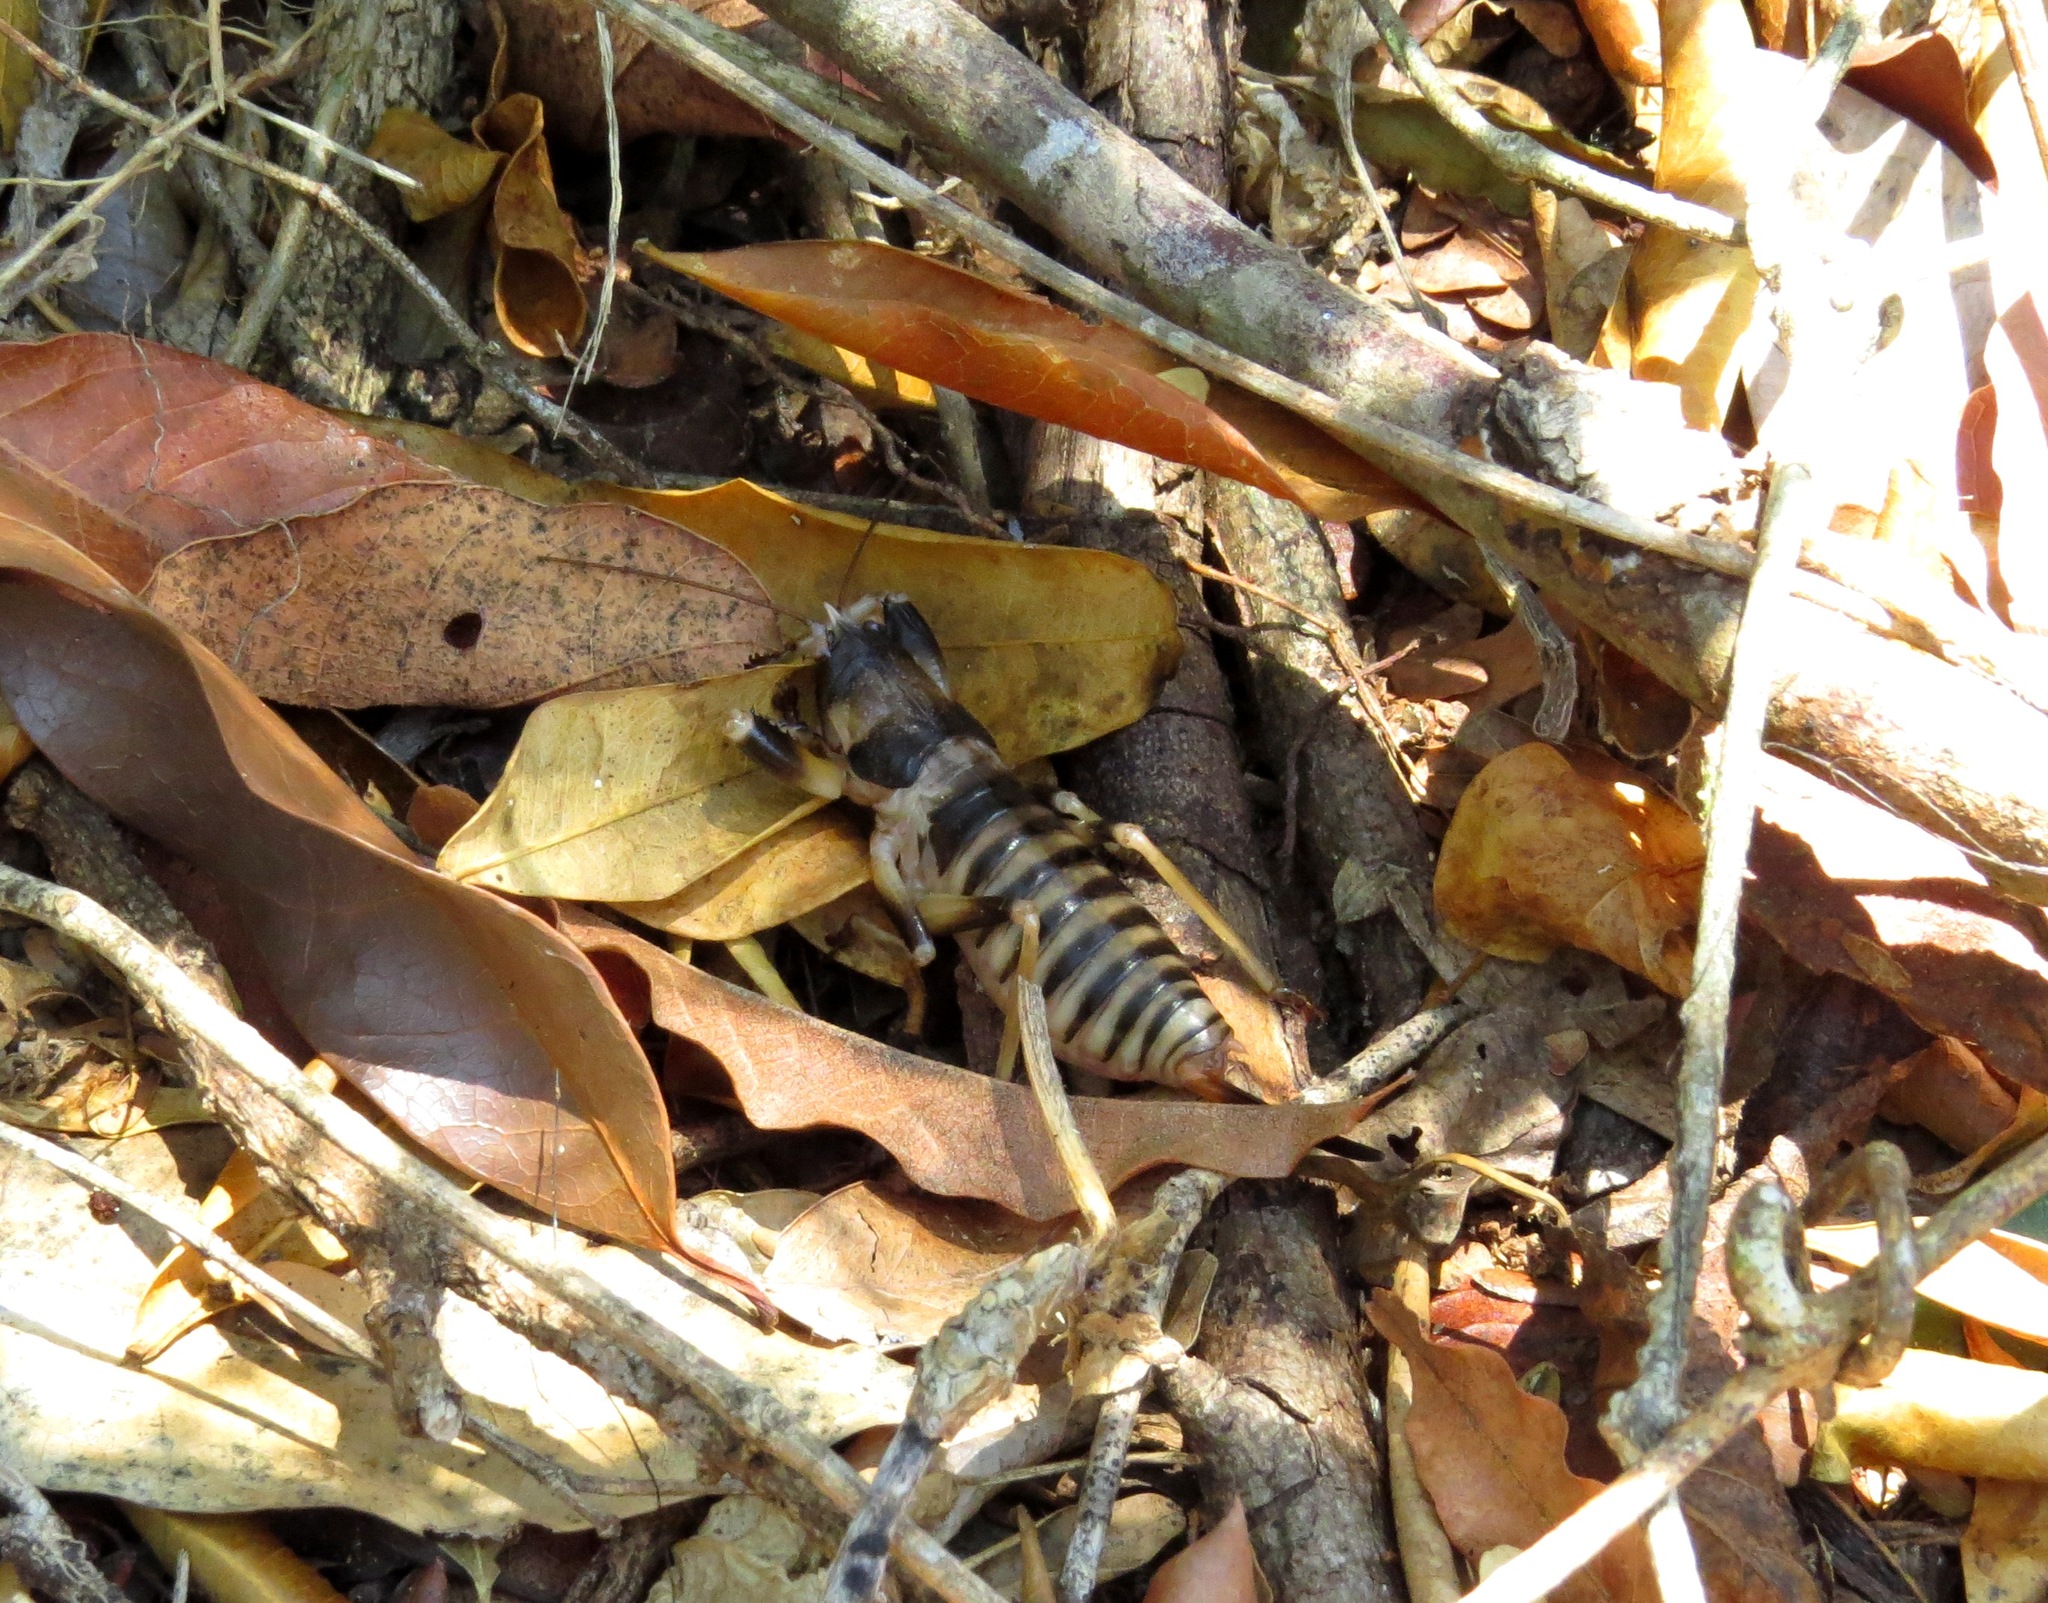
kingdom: Animalia
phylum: Arthropoda
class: Insecta
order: Orthoptera
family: Tettigoniidae
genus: Oncodopus
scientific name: Oncodopus brongniarti
